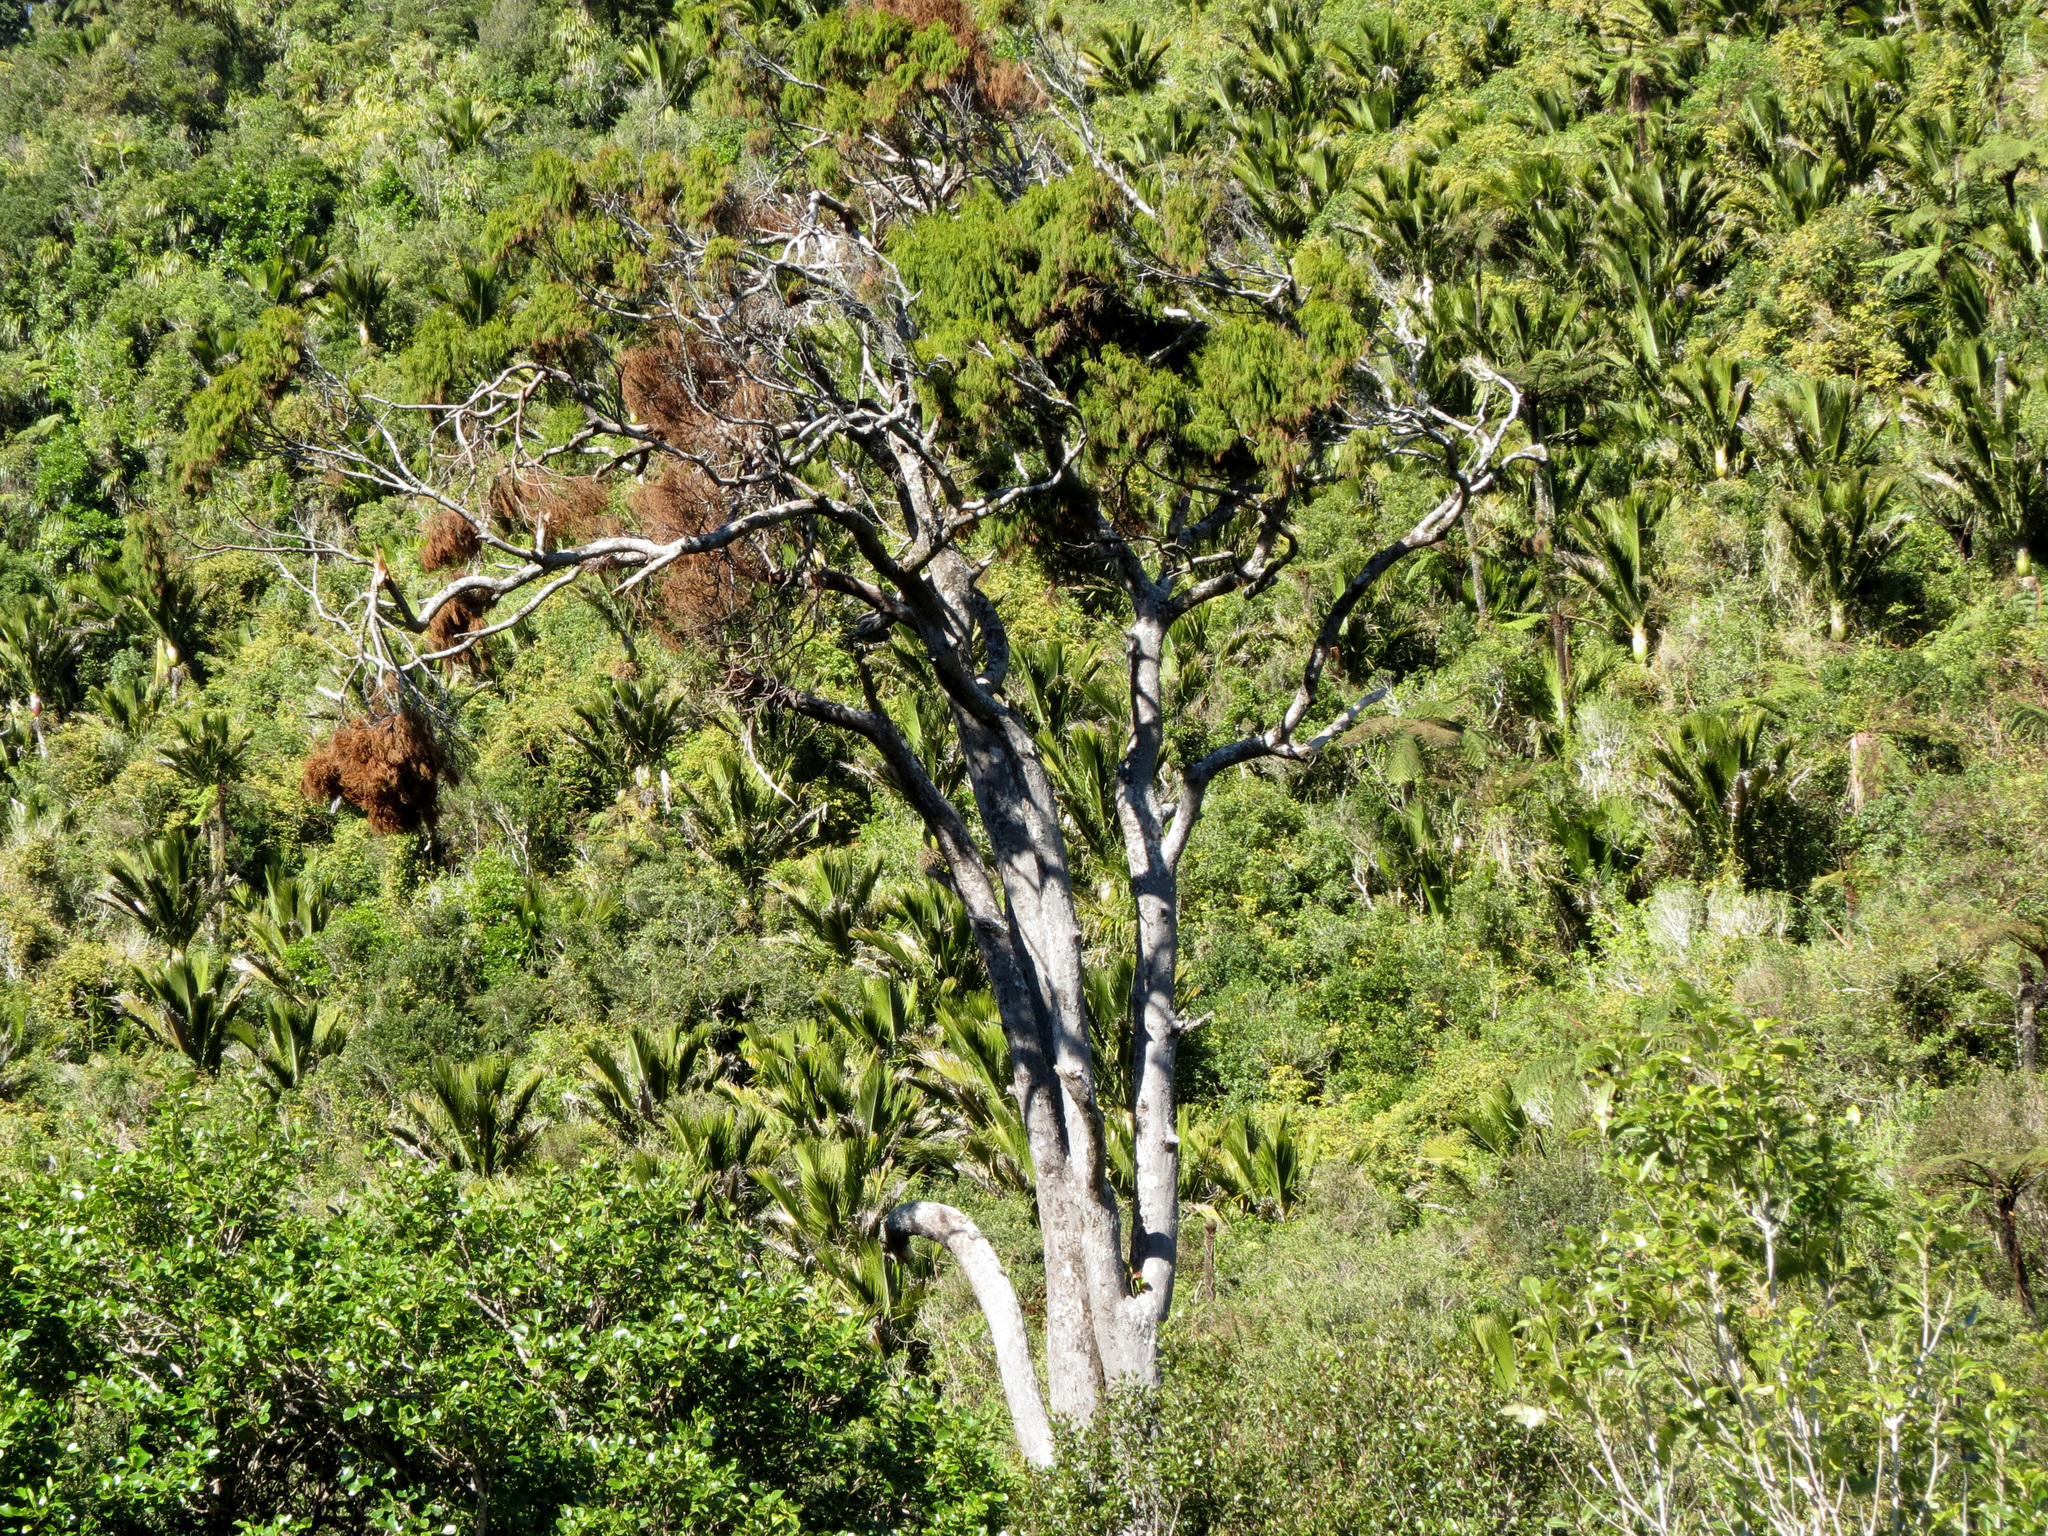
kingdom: Plantae
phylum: Tracheophyta
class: Pinopsida
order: Pinales
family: Podocarpaceae
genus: Dacrydium
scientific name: Dacrydium cupressinum
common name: Red pine
